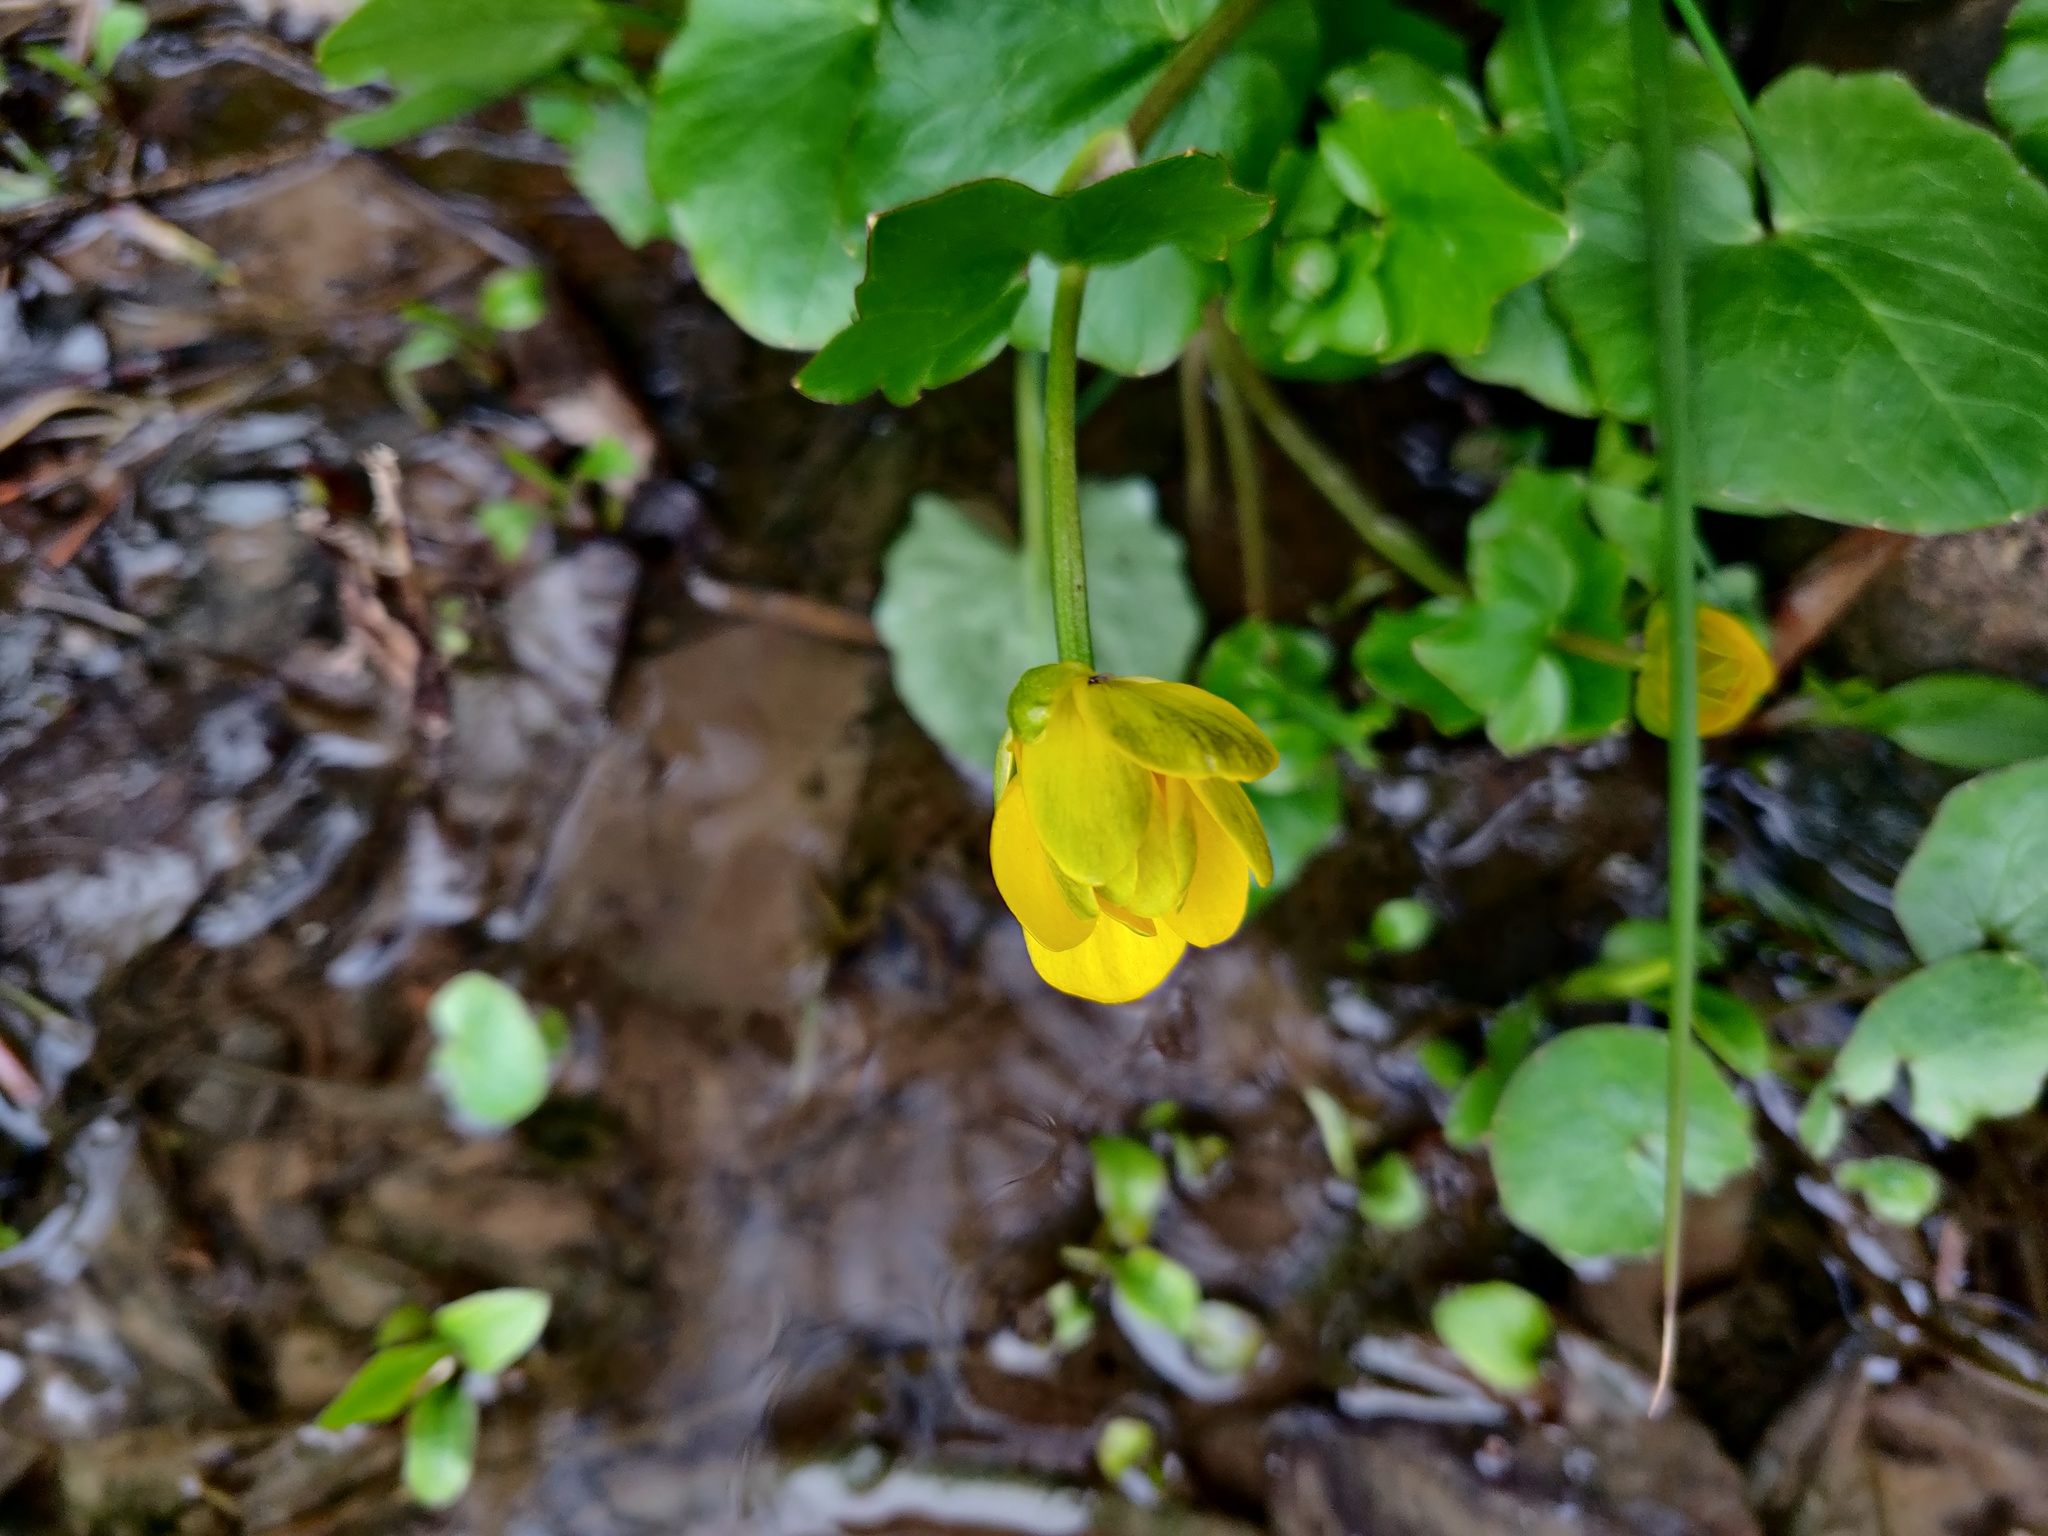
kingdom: Plantae
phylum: Tracheophyta
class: Magnoliopsida
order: Ranunculales
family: Ranunculaceae
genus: Ficaria
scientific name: Ficaria verna
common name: Lesser celandine
